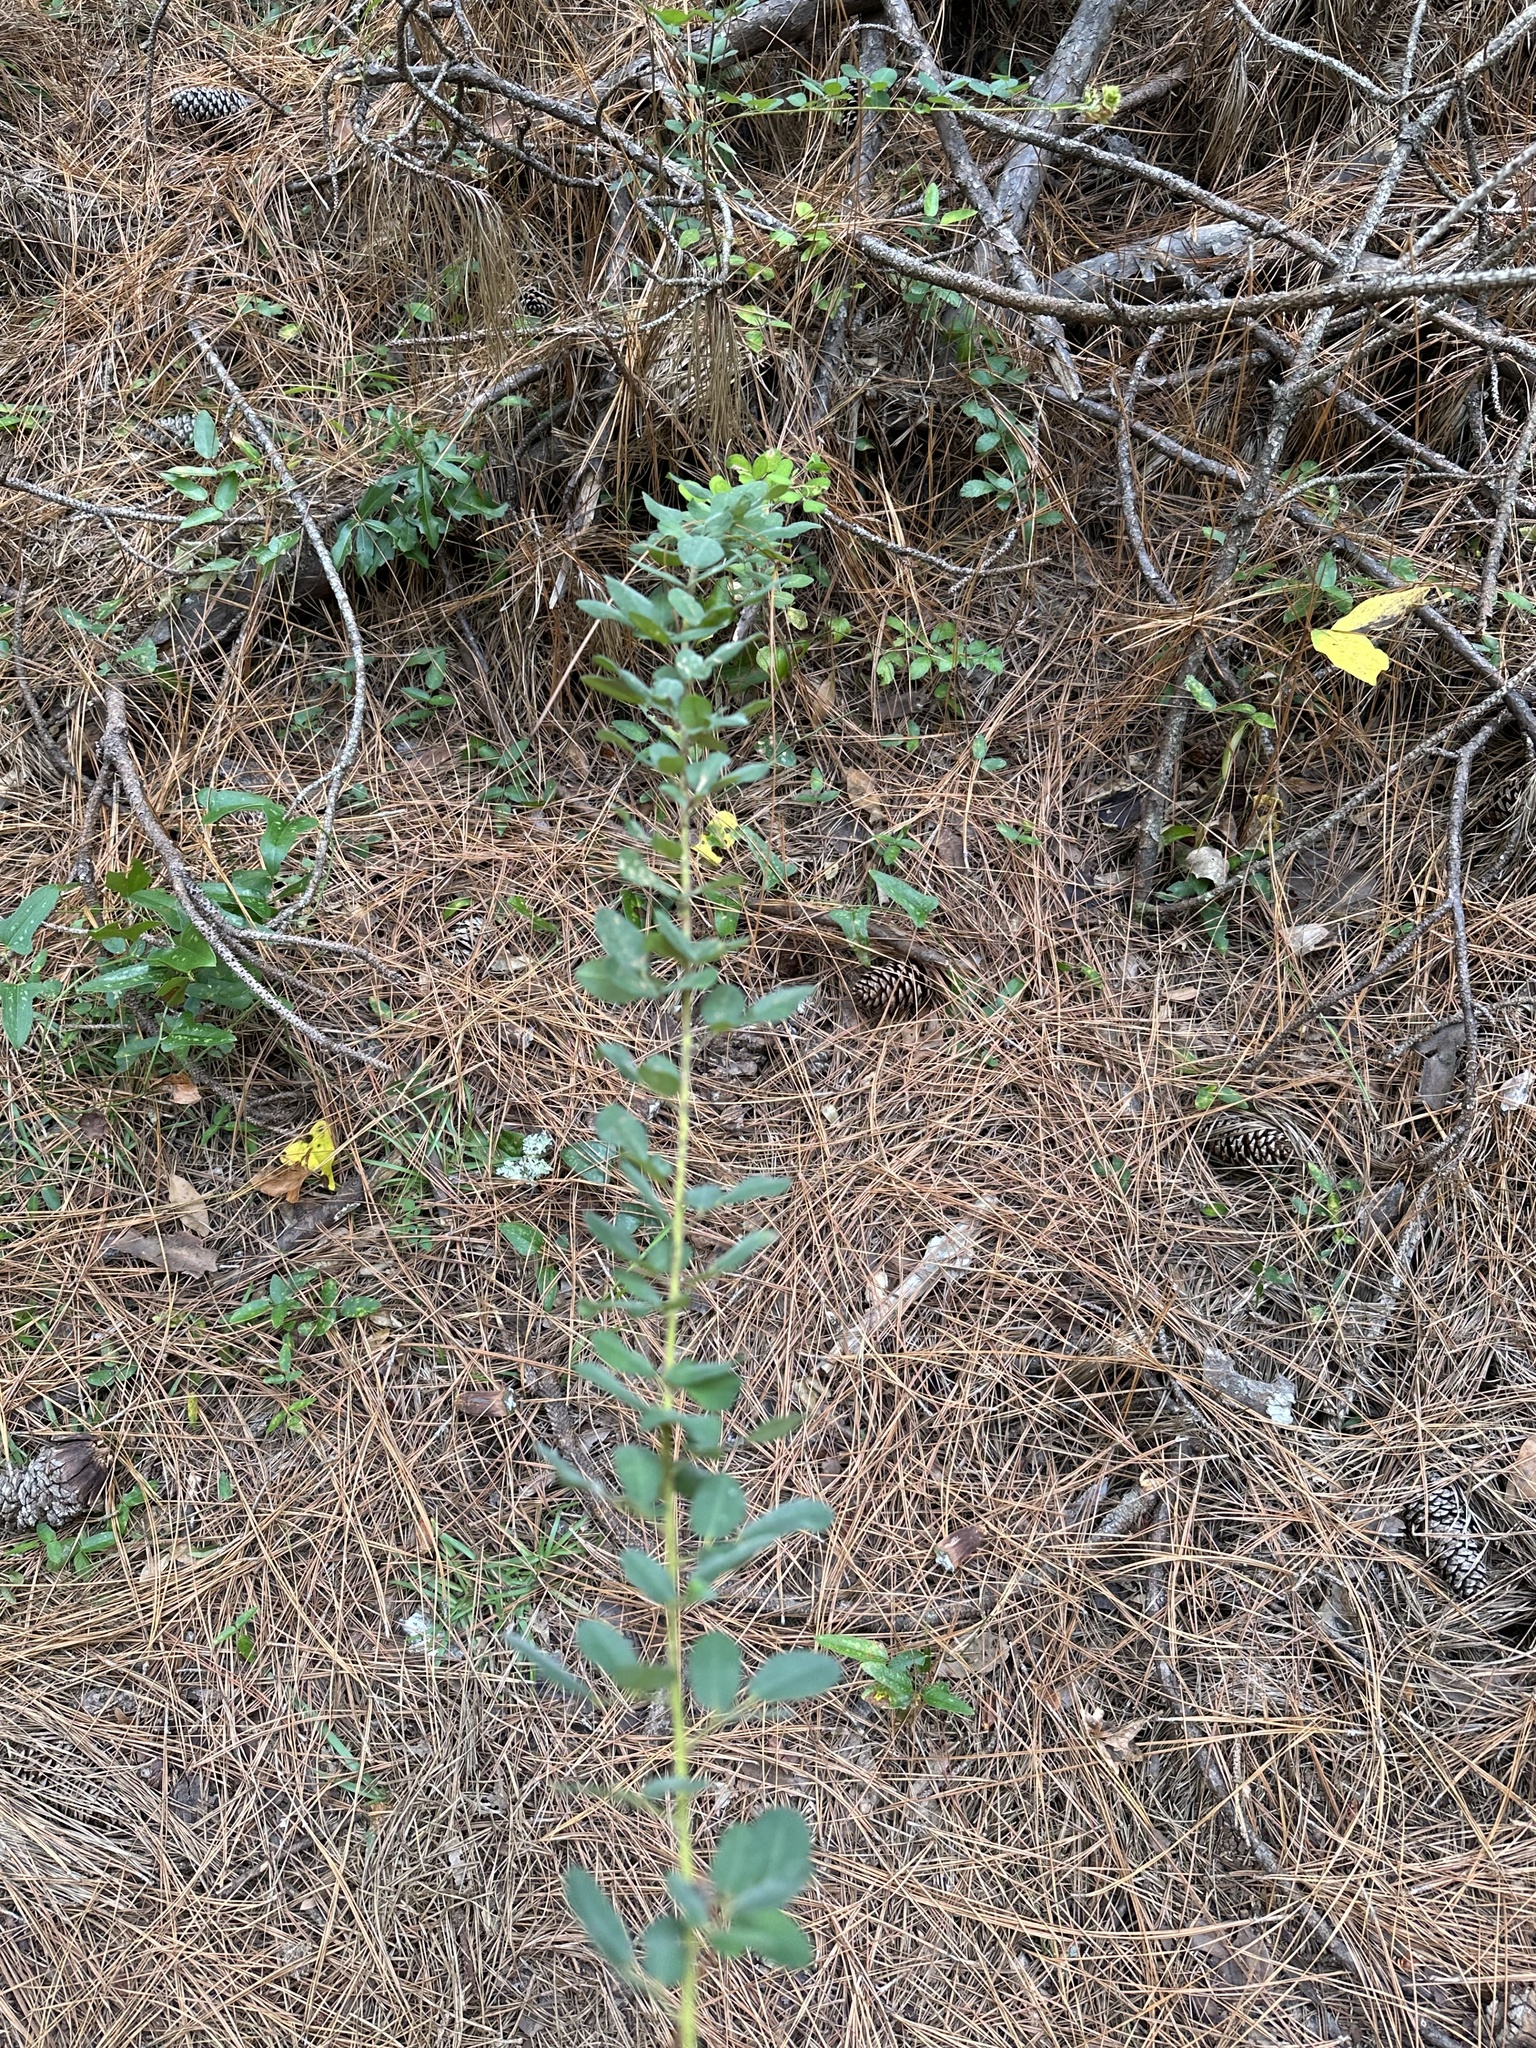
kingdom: Plantae
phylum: Tracheophyta
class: Magnoliopsida
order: Fabales
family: Fabaceae
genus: Lespedeza
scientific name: Lespedeza hirta
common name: Hairy lespedeza
